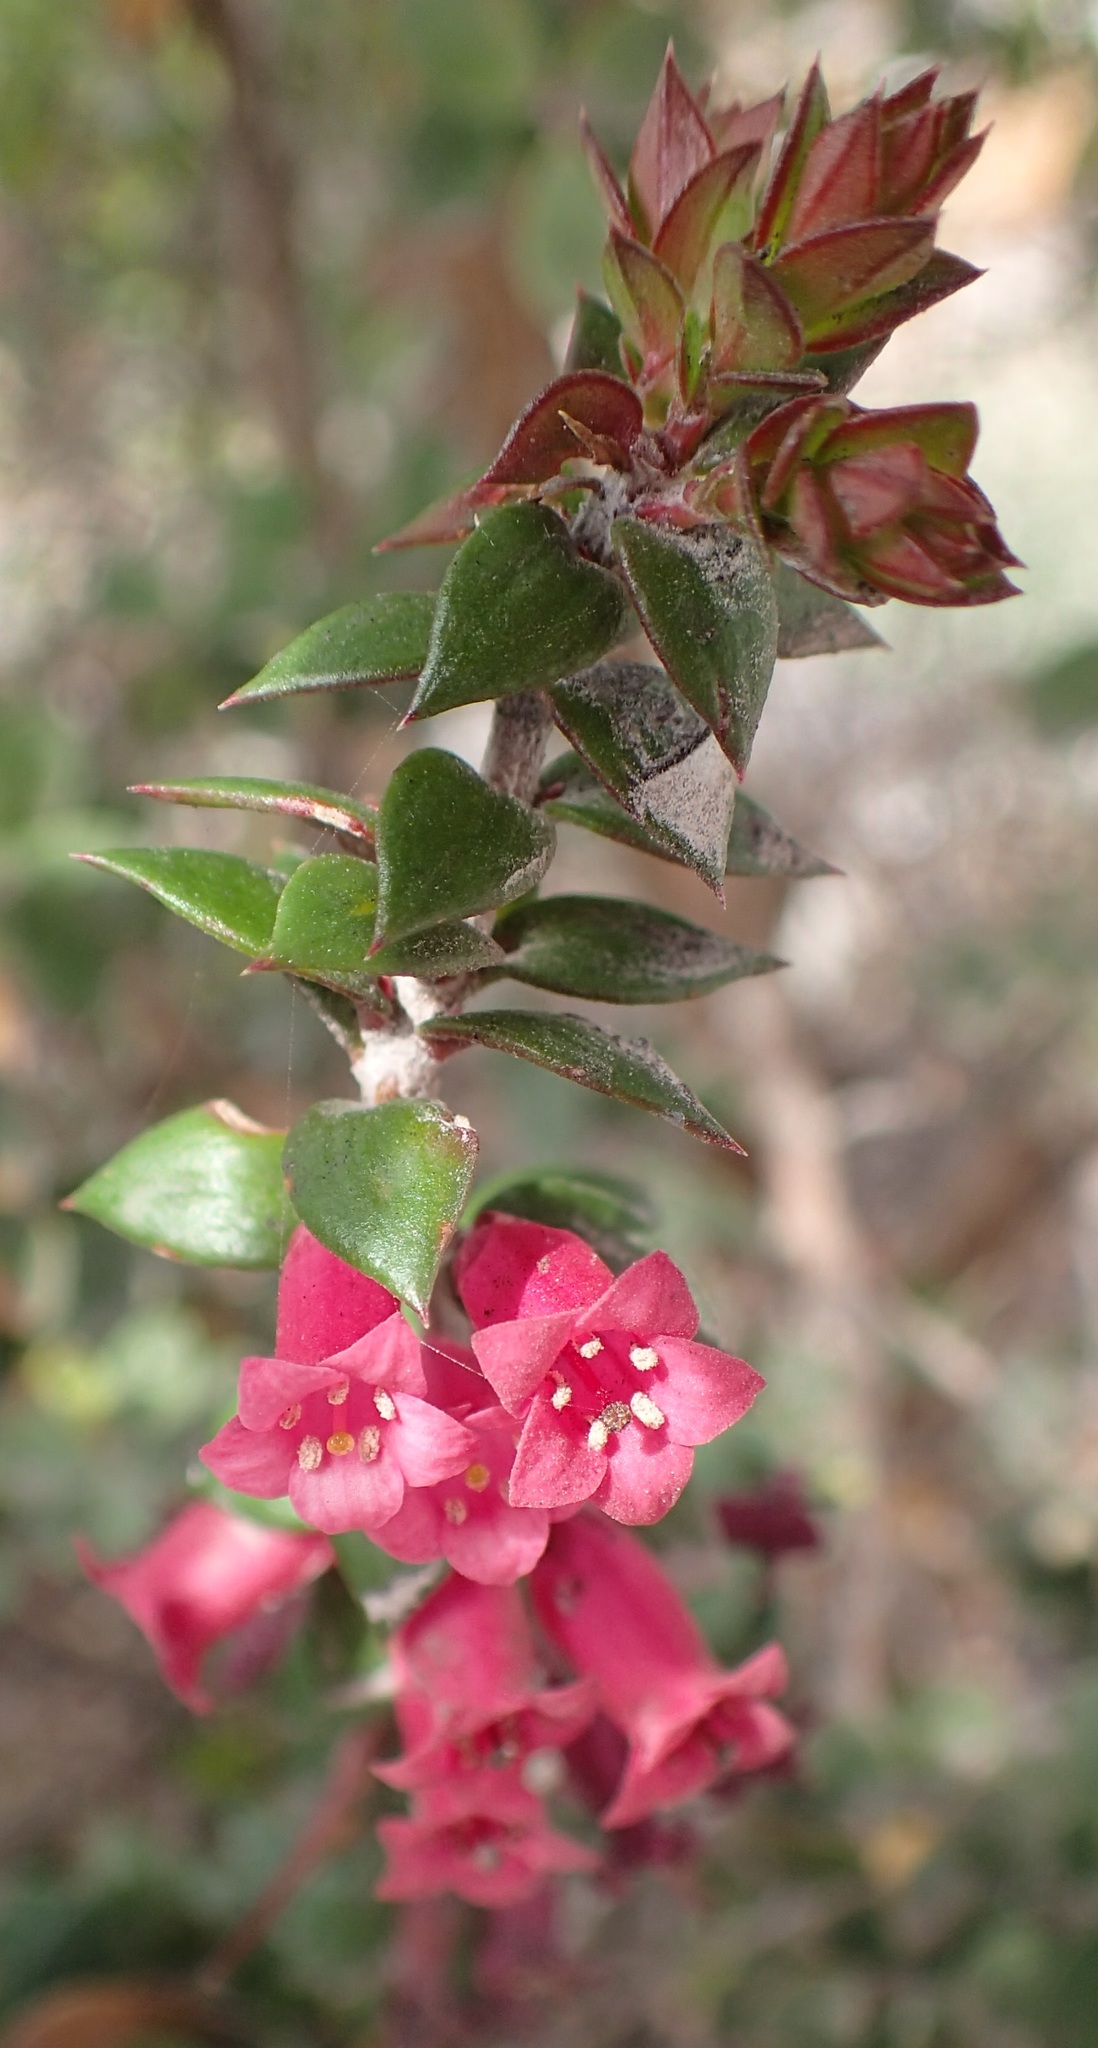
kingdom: Plantae
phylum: Tracheophyta
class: Magnoliopsida
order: Ericales
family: Ericaceae
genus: Epacris
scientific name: Epacris impressa
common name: Common-heath
